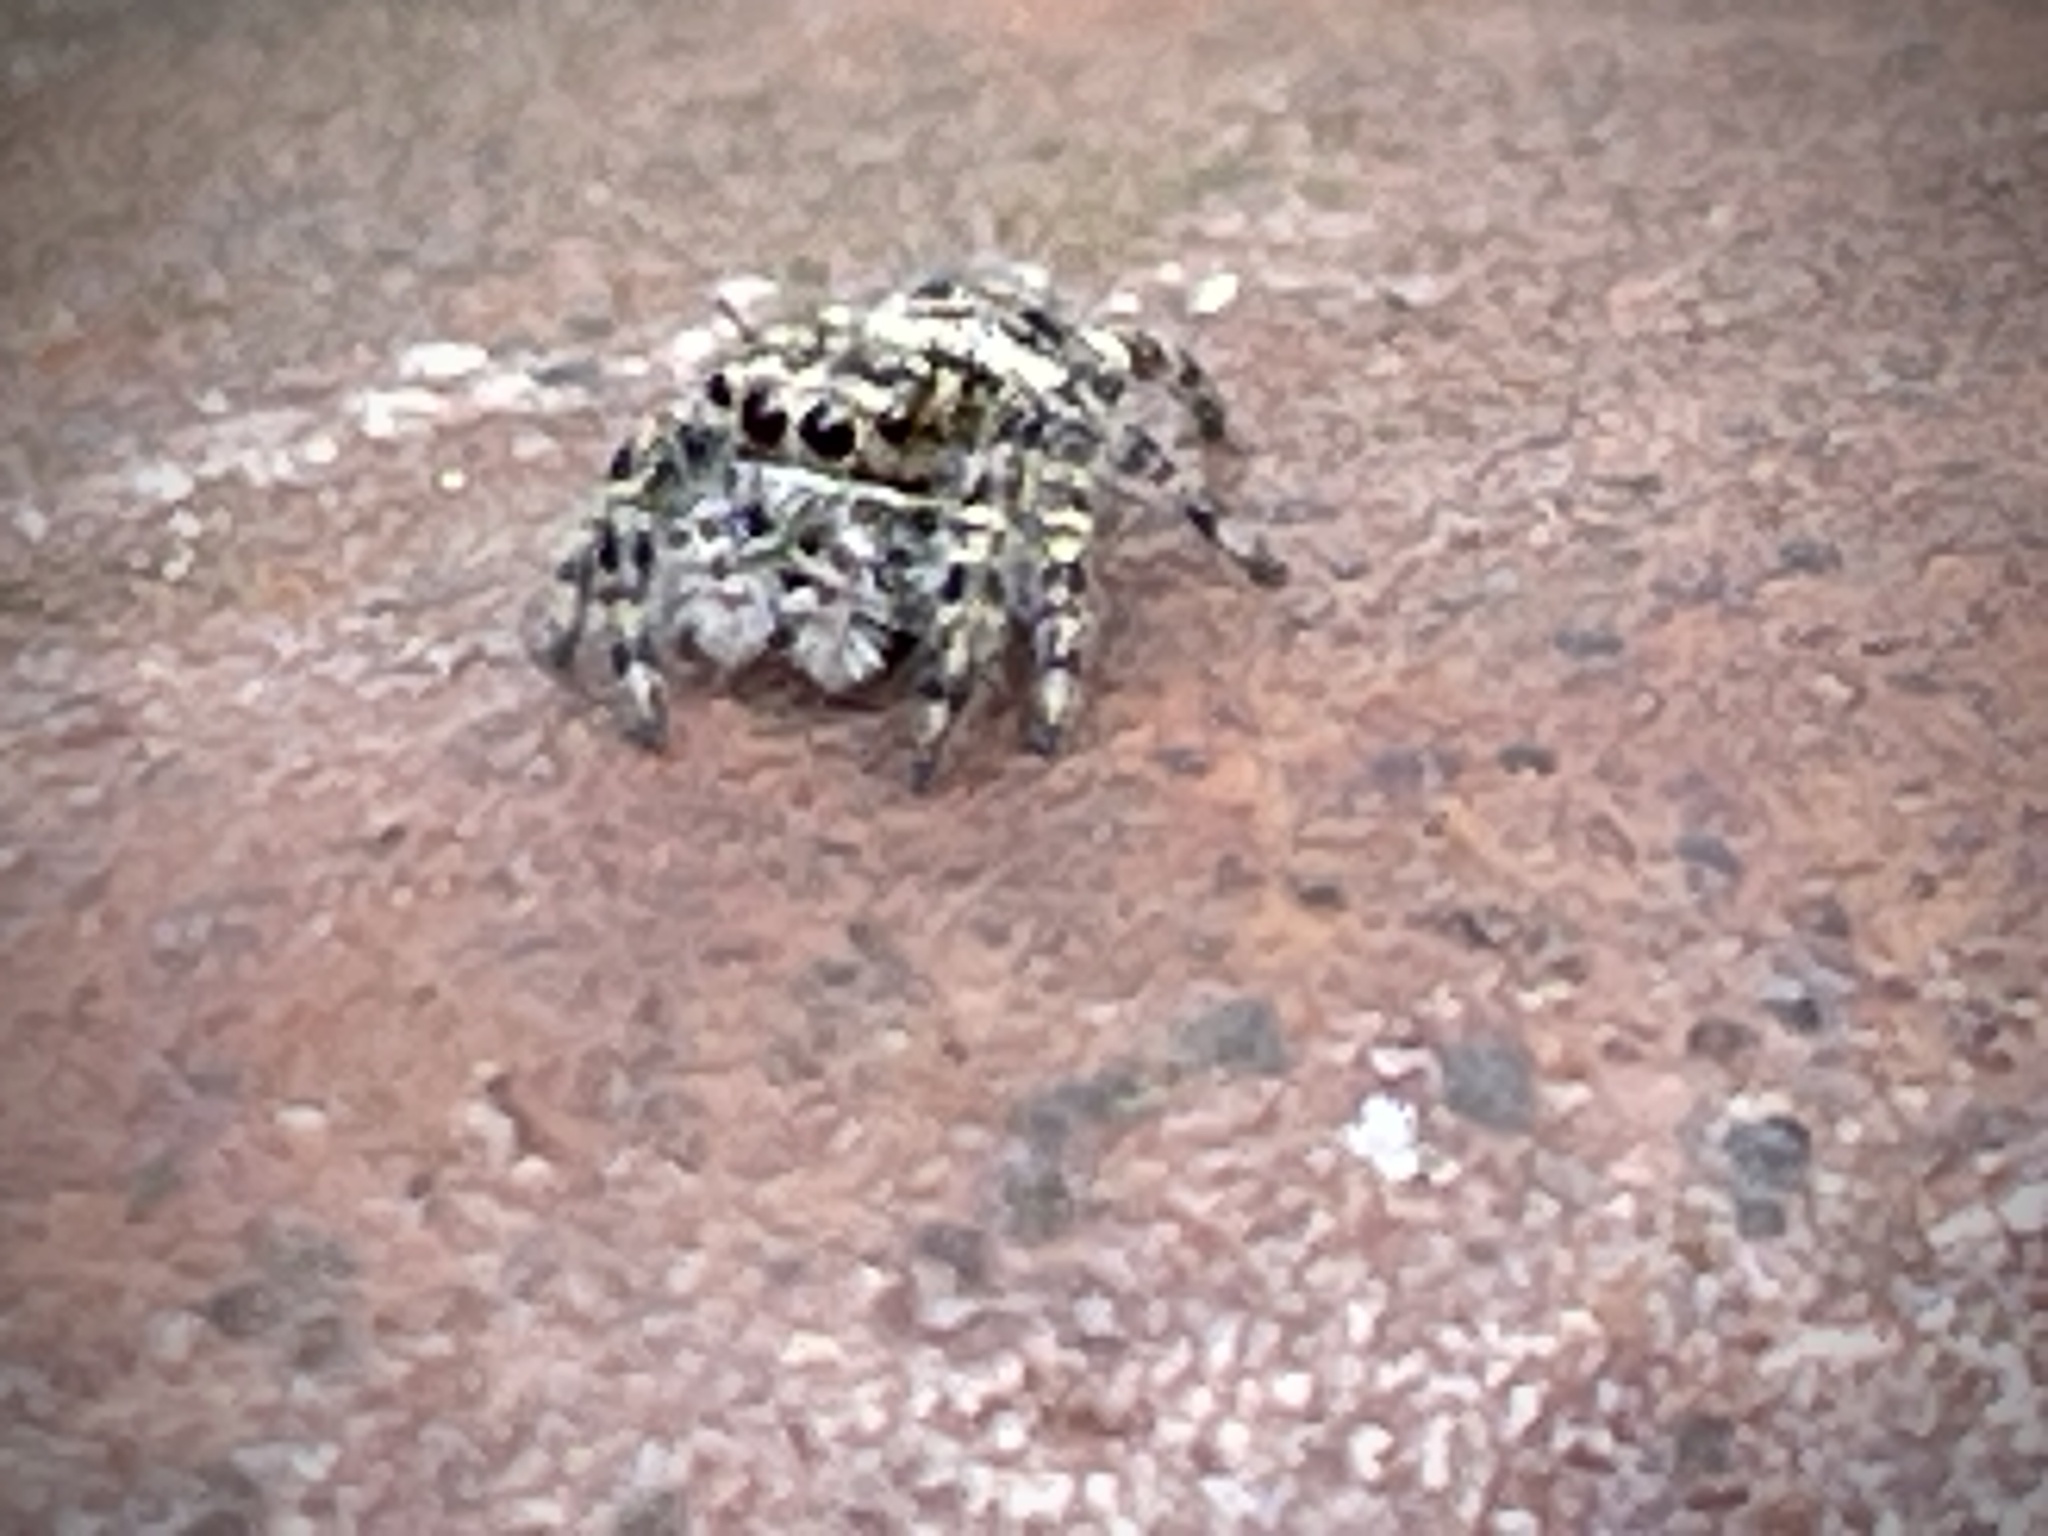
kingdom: Animalia
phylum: Arthropoda
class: Arachnida
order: Araneae
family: Salticidae
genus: Phidippus
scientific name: Phidippus putnami
